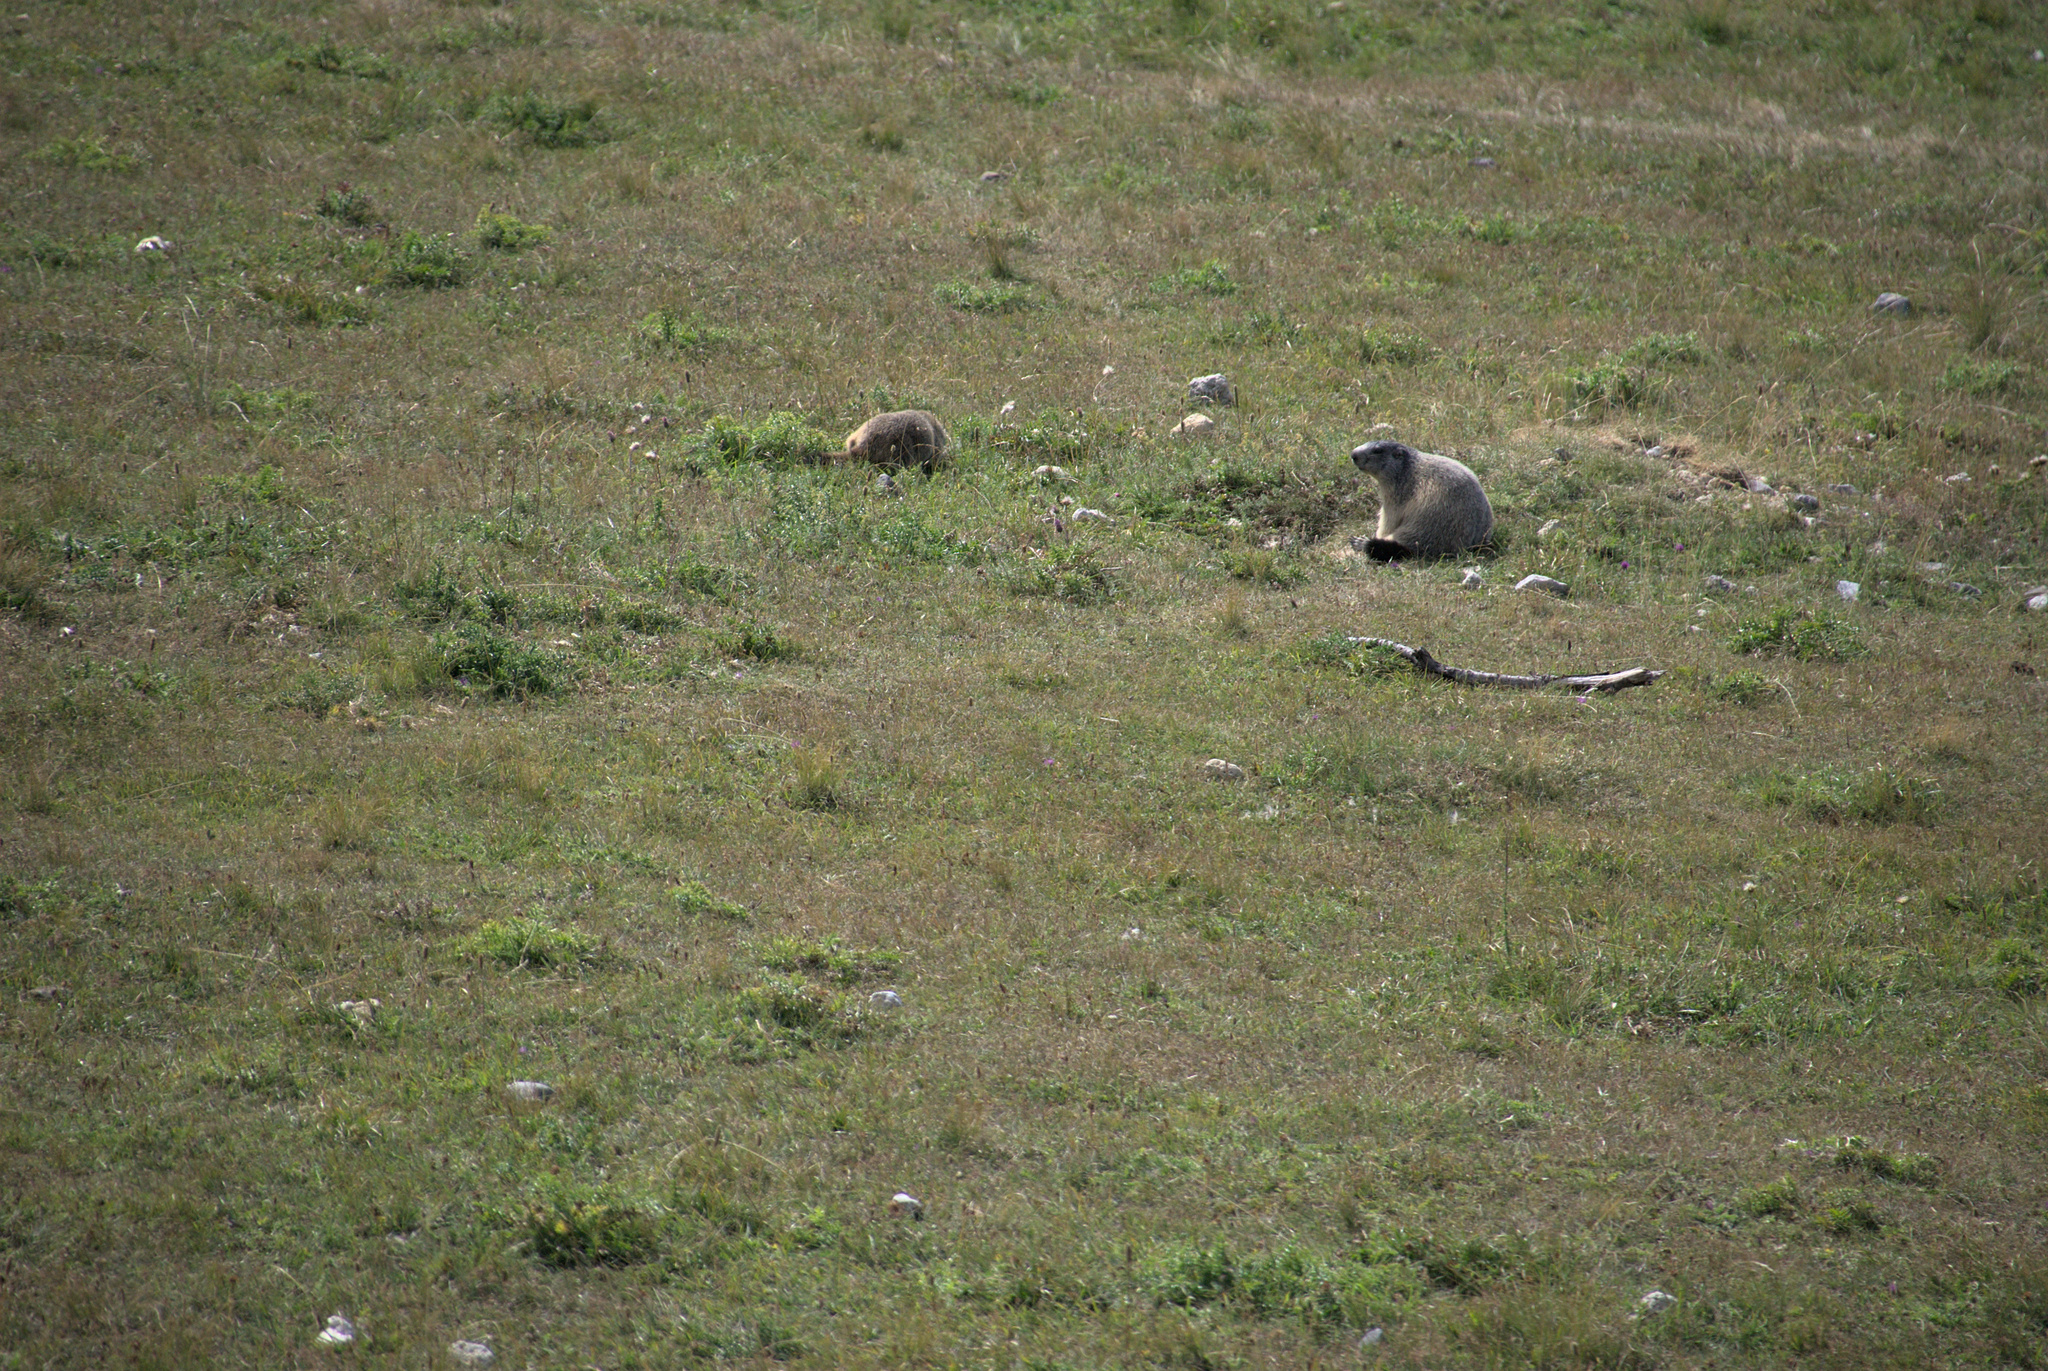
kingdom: Animalia
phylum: Chordata
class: Mammalia
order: Rodentia
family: Sciuridae
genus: Marmota
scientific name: Marmota marmota
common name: Alpine marmot
